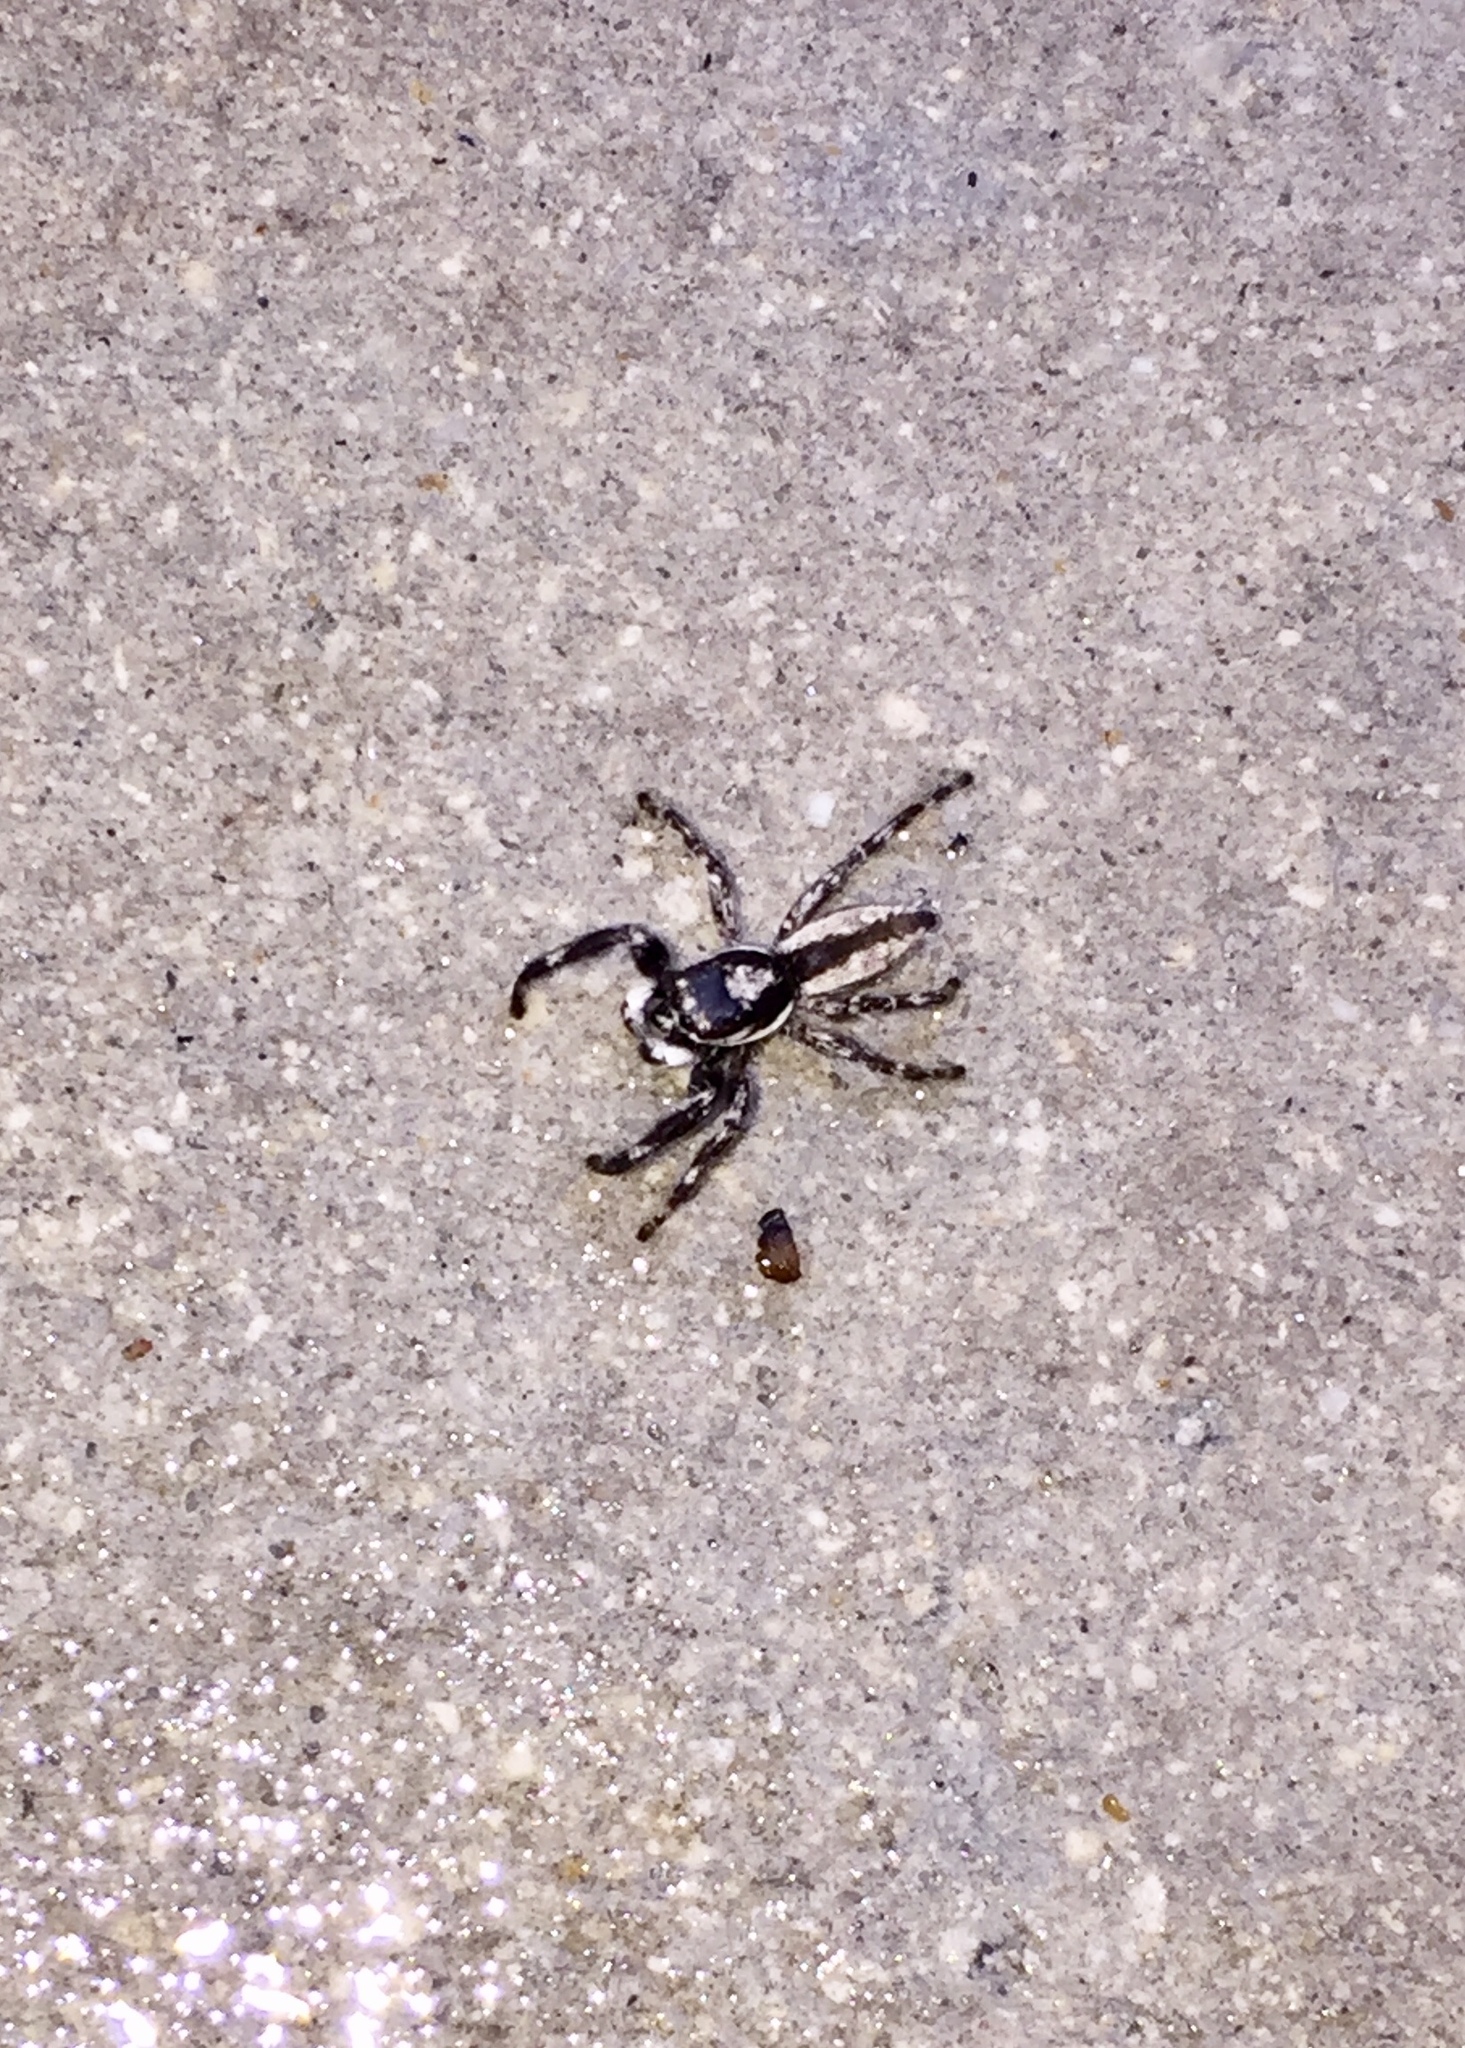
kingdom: Animalia
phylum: Arthropoda
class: Arachnida
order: Araneae
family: Salticidae
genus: Menemerus
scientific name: Menemerus bivittatus
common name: Gray wall jumper
